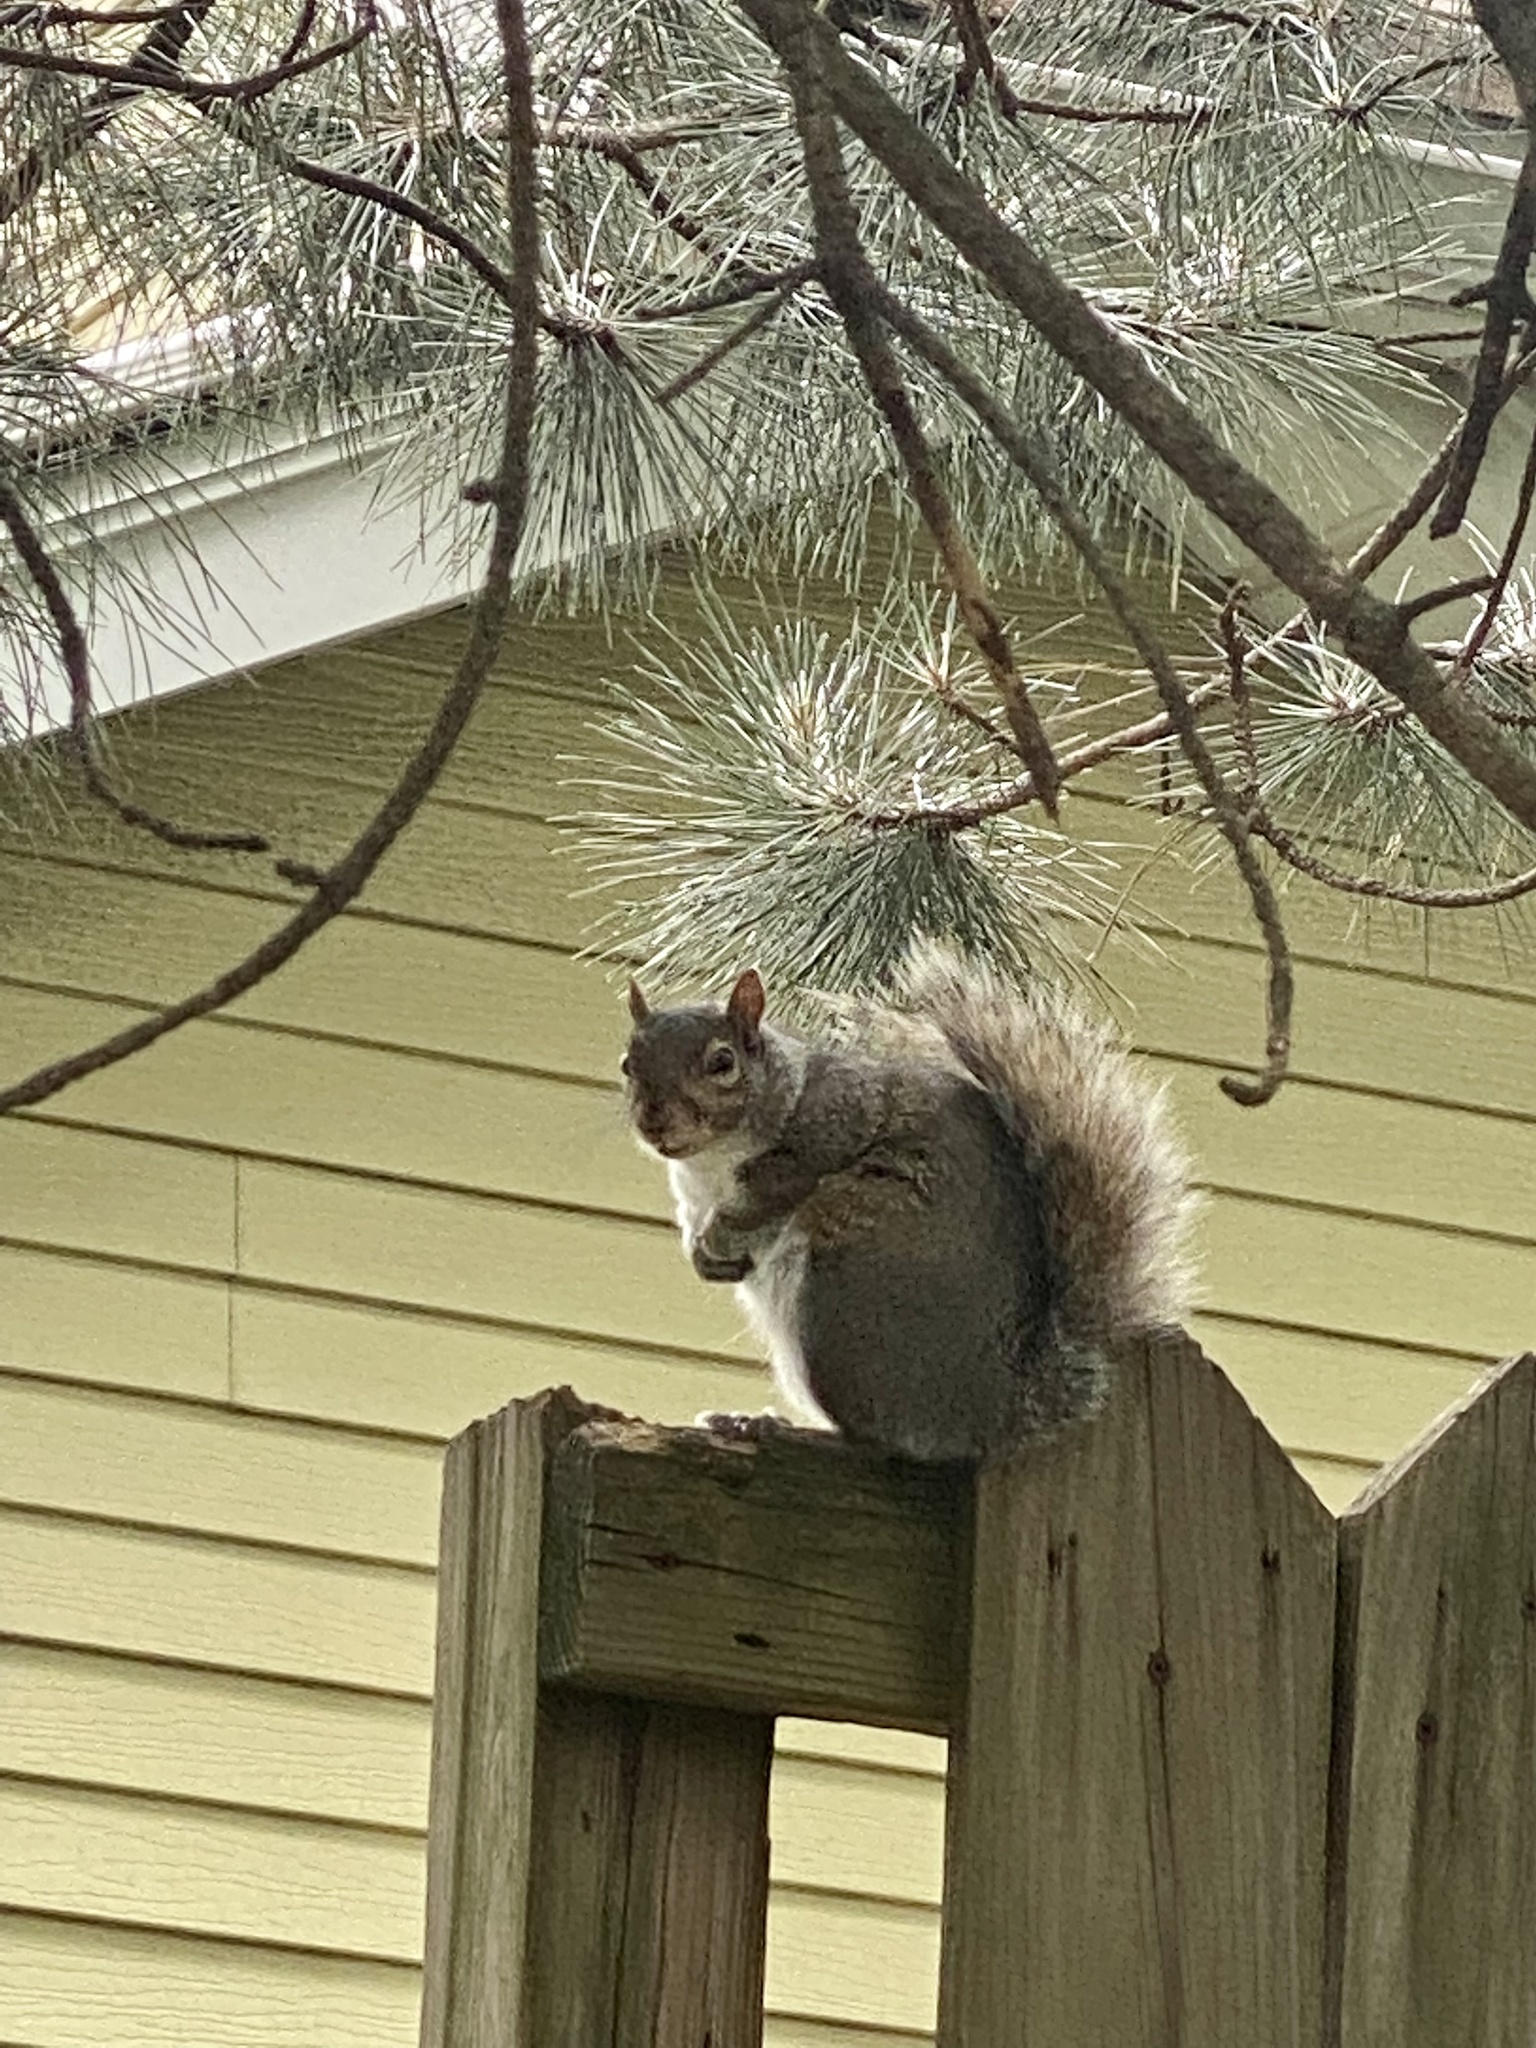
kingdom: Animalia
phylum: Chordata
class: Mammalia
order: Rodentia
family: Sciuridae
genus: Sciurus
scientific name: Sciurus carolinensis
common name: Eastern gray squirrel
